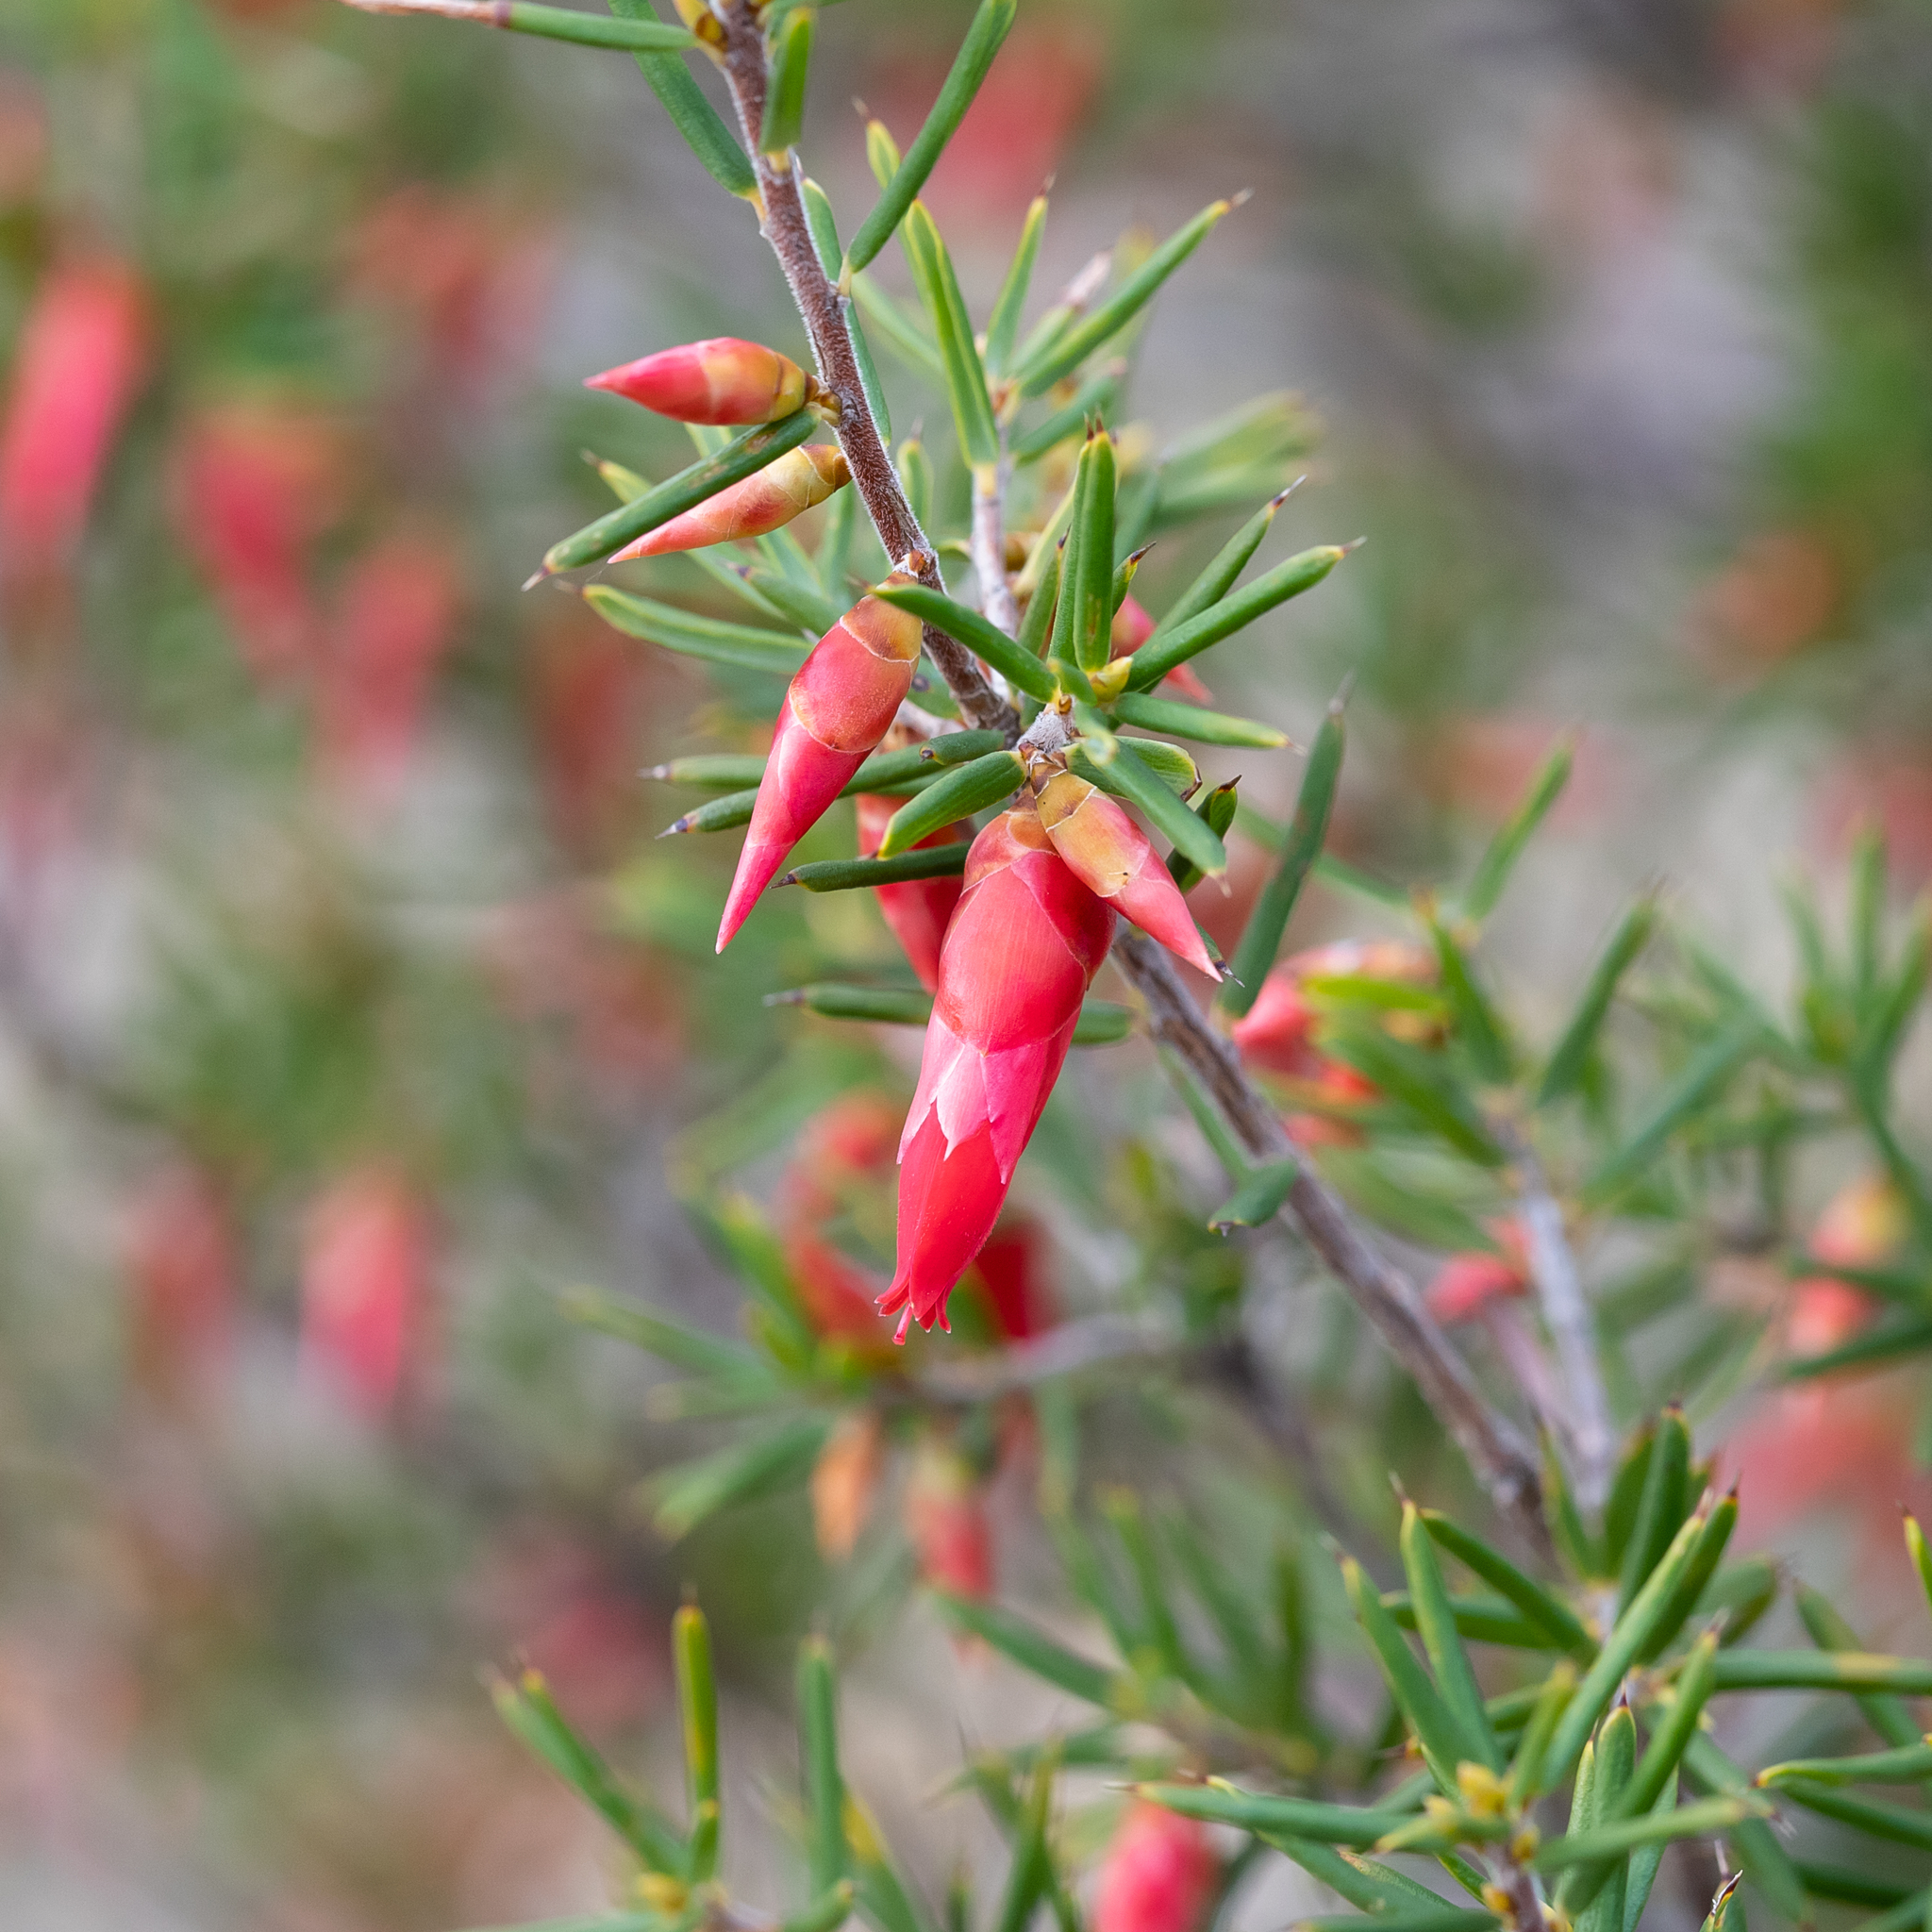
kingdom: Plantae
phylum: Tracheophyta
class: Magnoliopsida
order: Ericales
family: Ericaceae
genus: Stenanthera
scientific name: Stenanthera conostephioides
